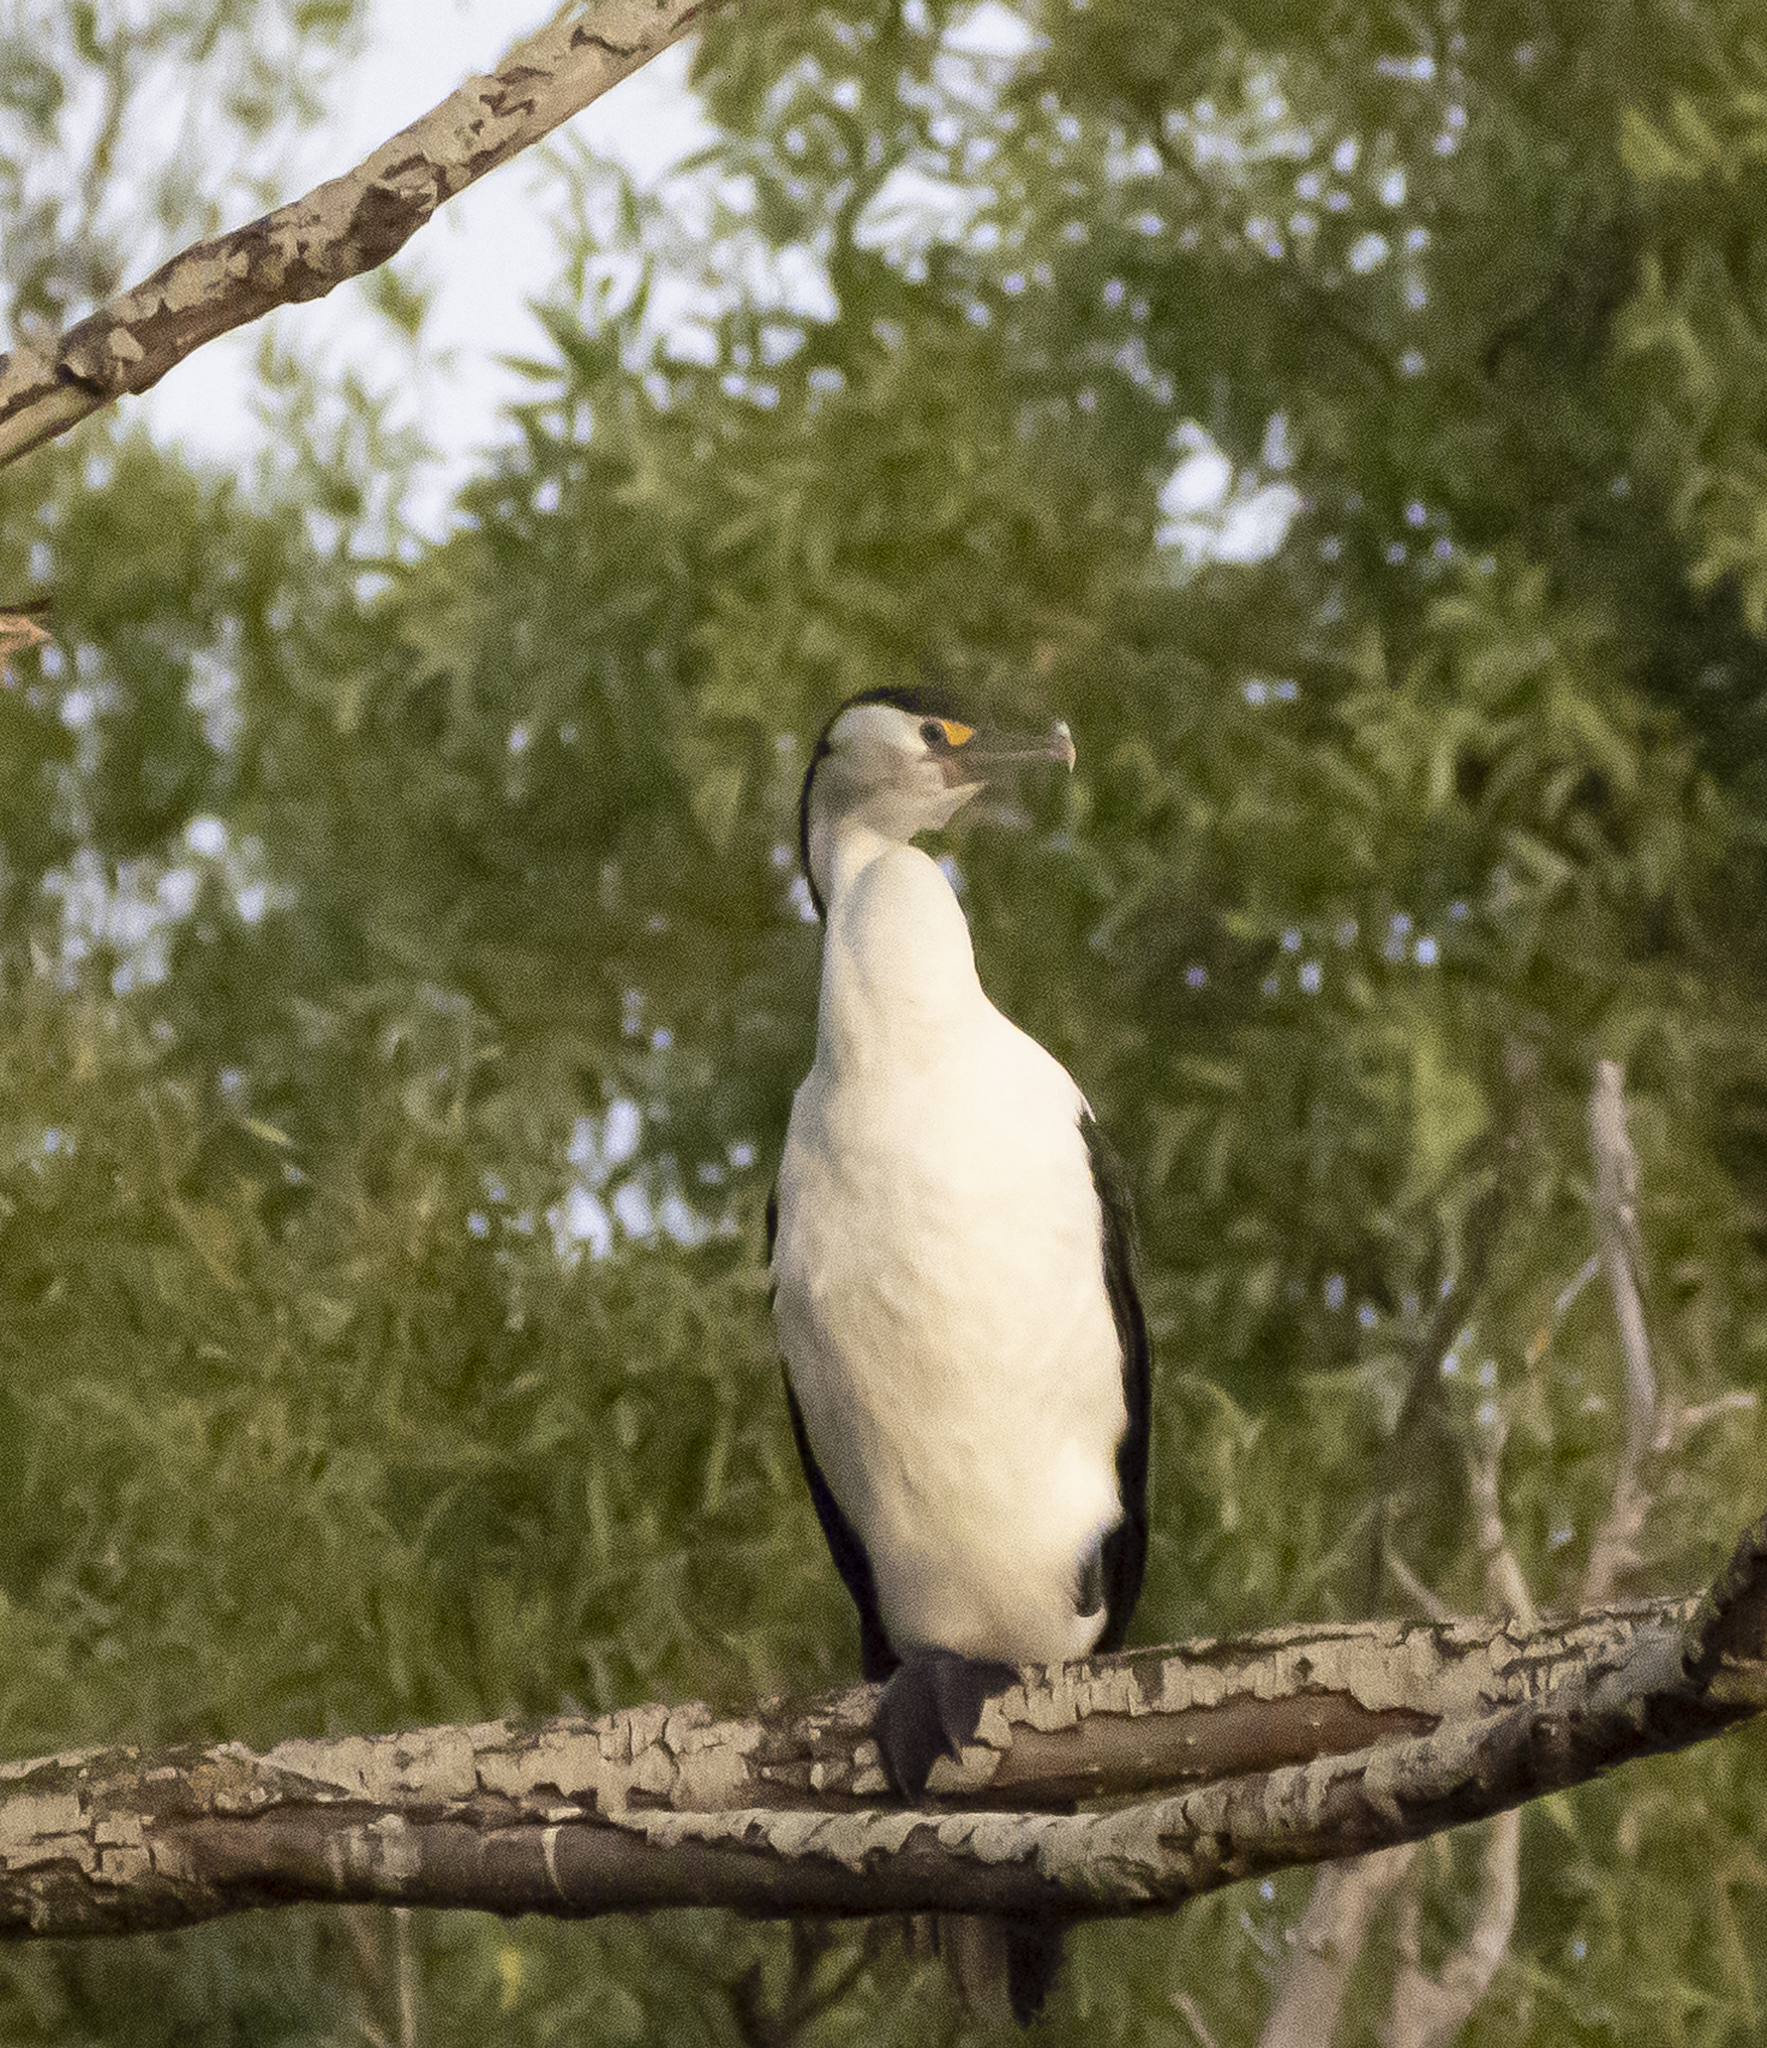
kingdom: Animalia
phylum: Chordata
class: Aves
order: Suliformes
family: Phalacrocoracidae
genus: Phalacrocorax
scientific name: Phalacrocorax varius
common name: Pied cormorant
